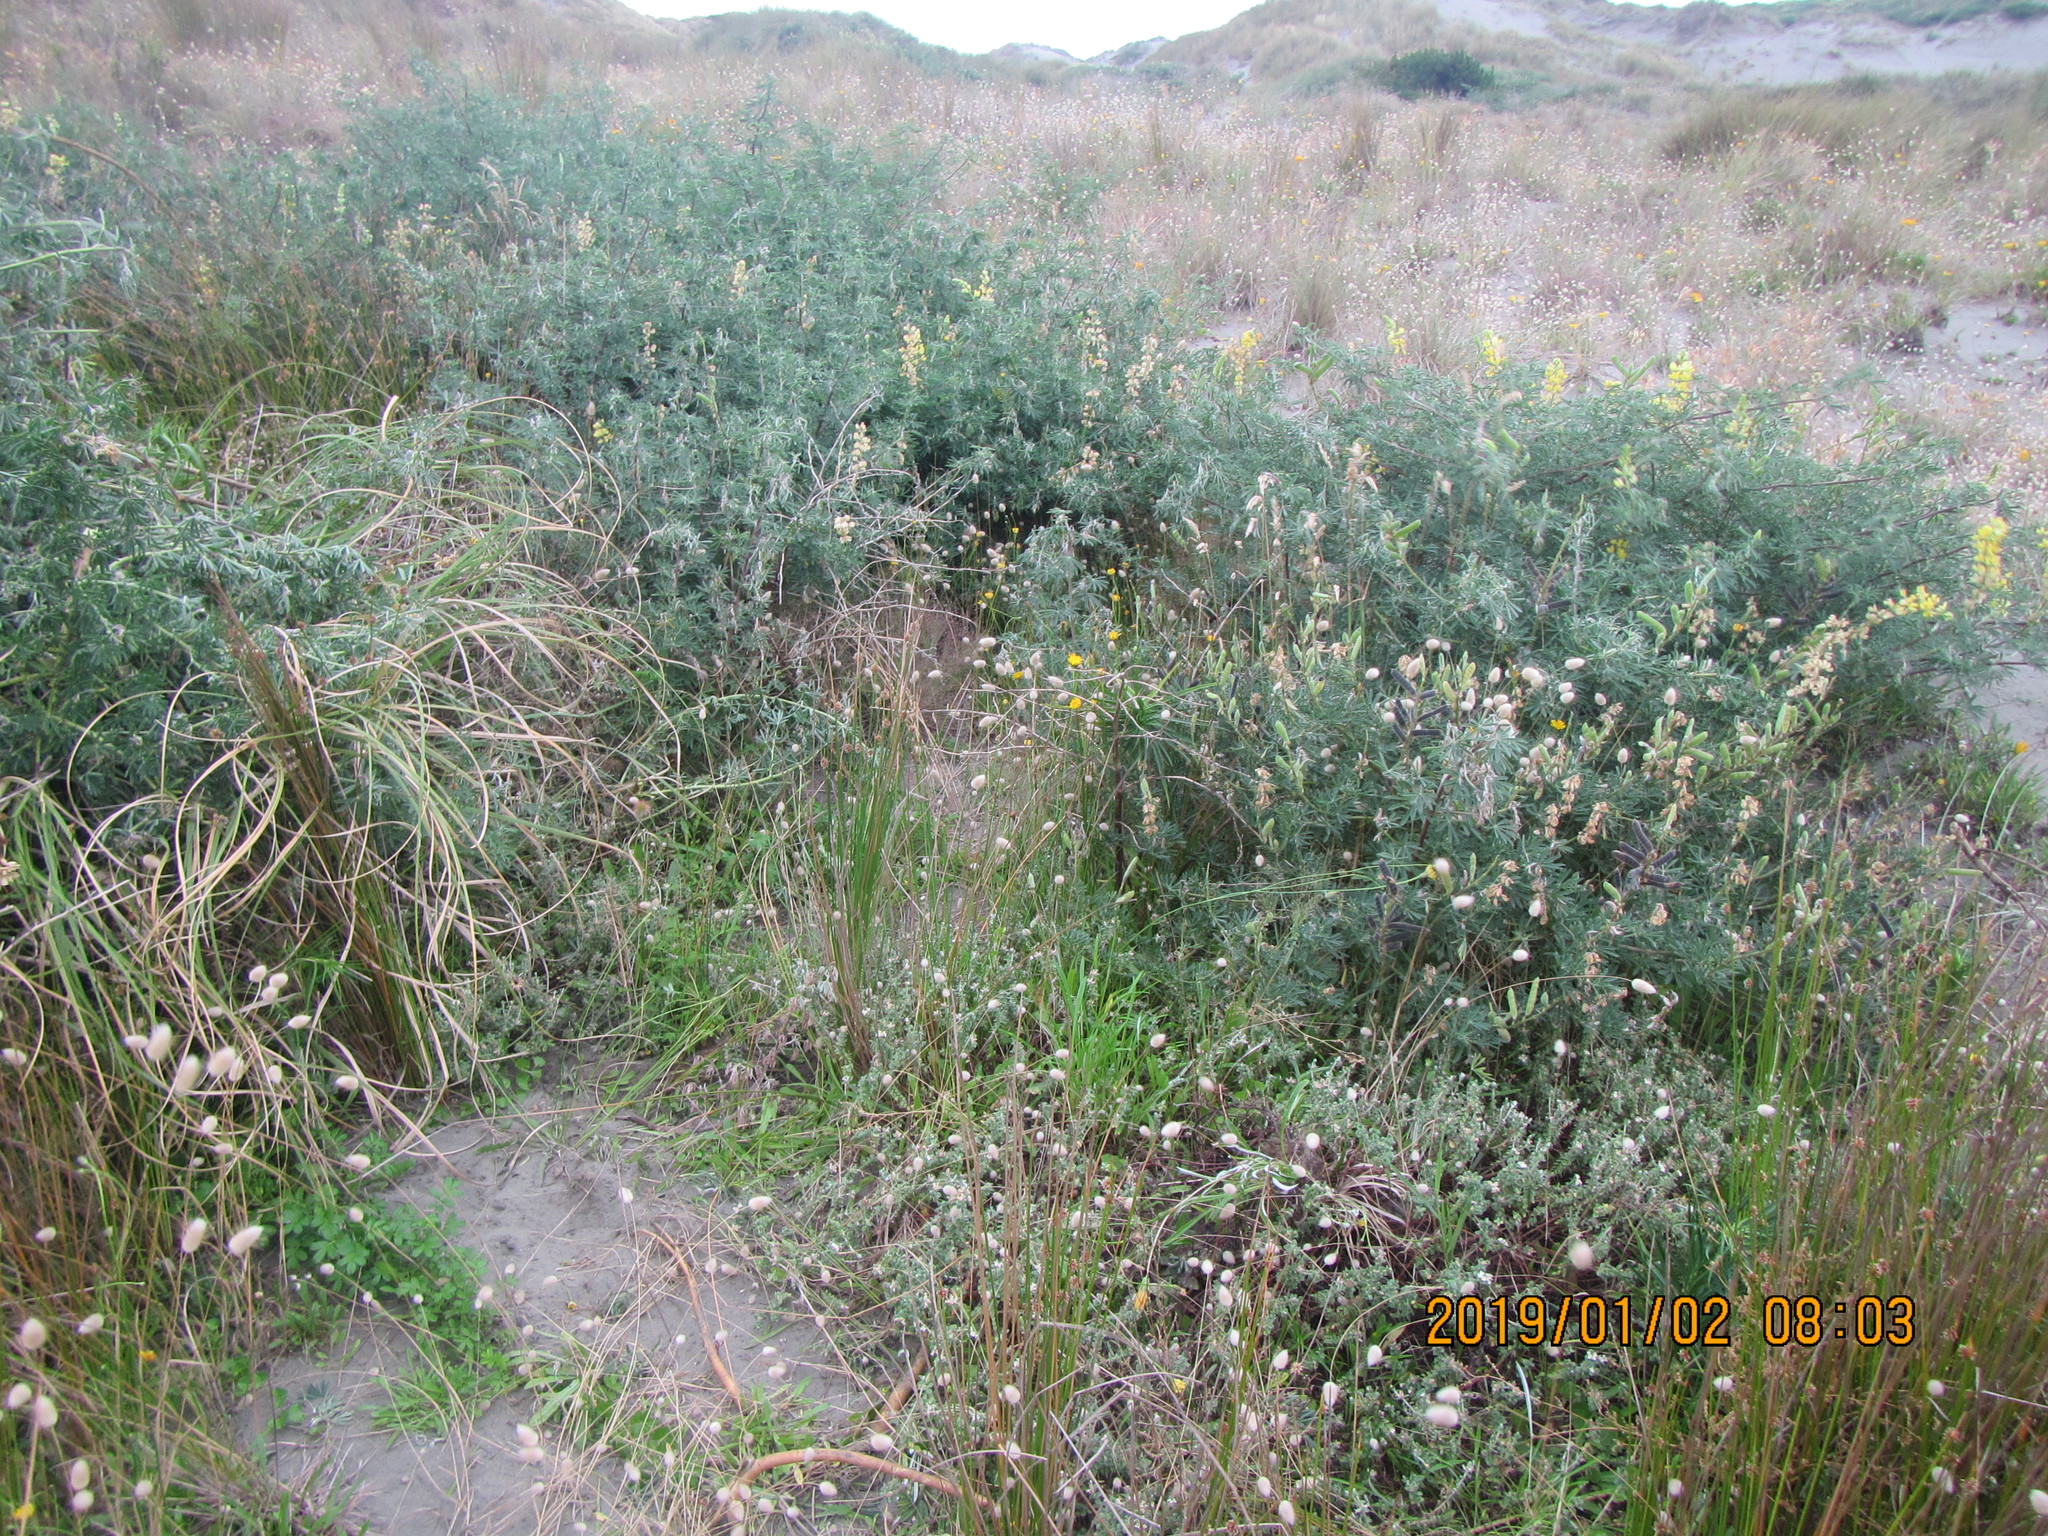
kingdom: Plantae
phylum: Tracheophyta
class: Magnoliopsida
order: Rosales
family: Rosaceae
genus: Acaena
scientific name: Acaena novae-zelandiae
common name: Pirri-pirri-bur
